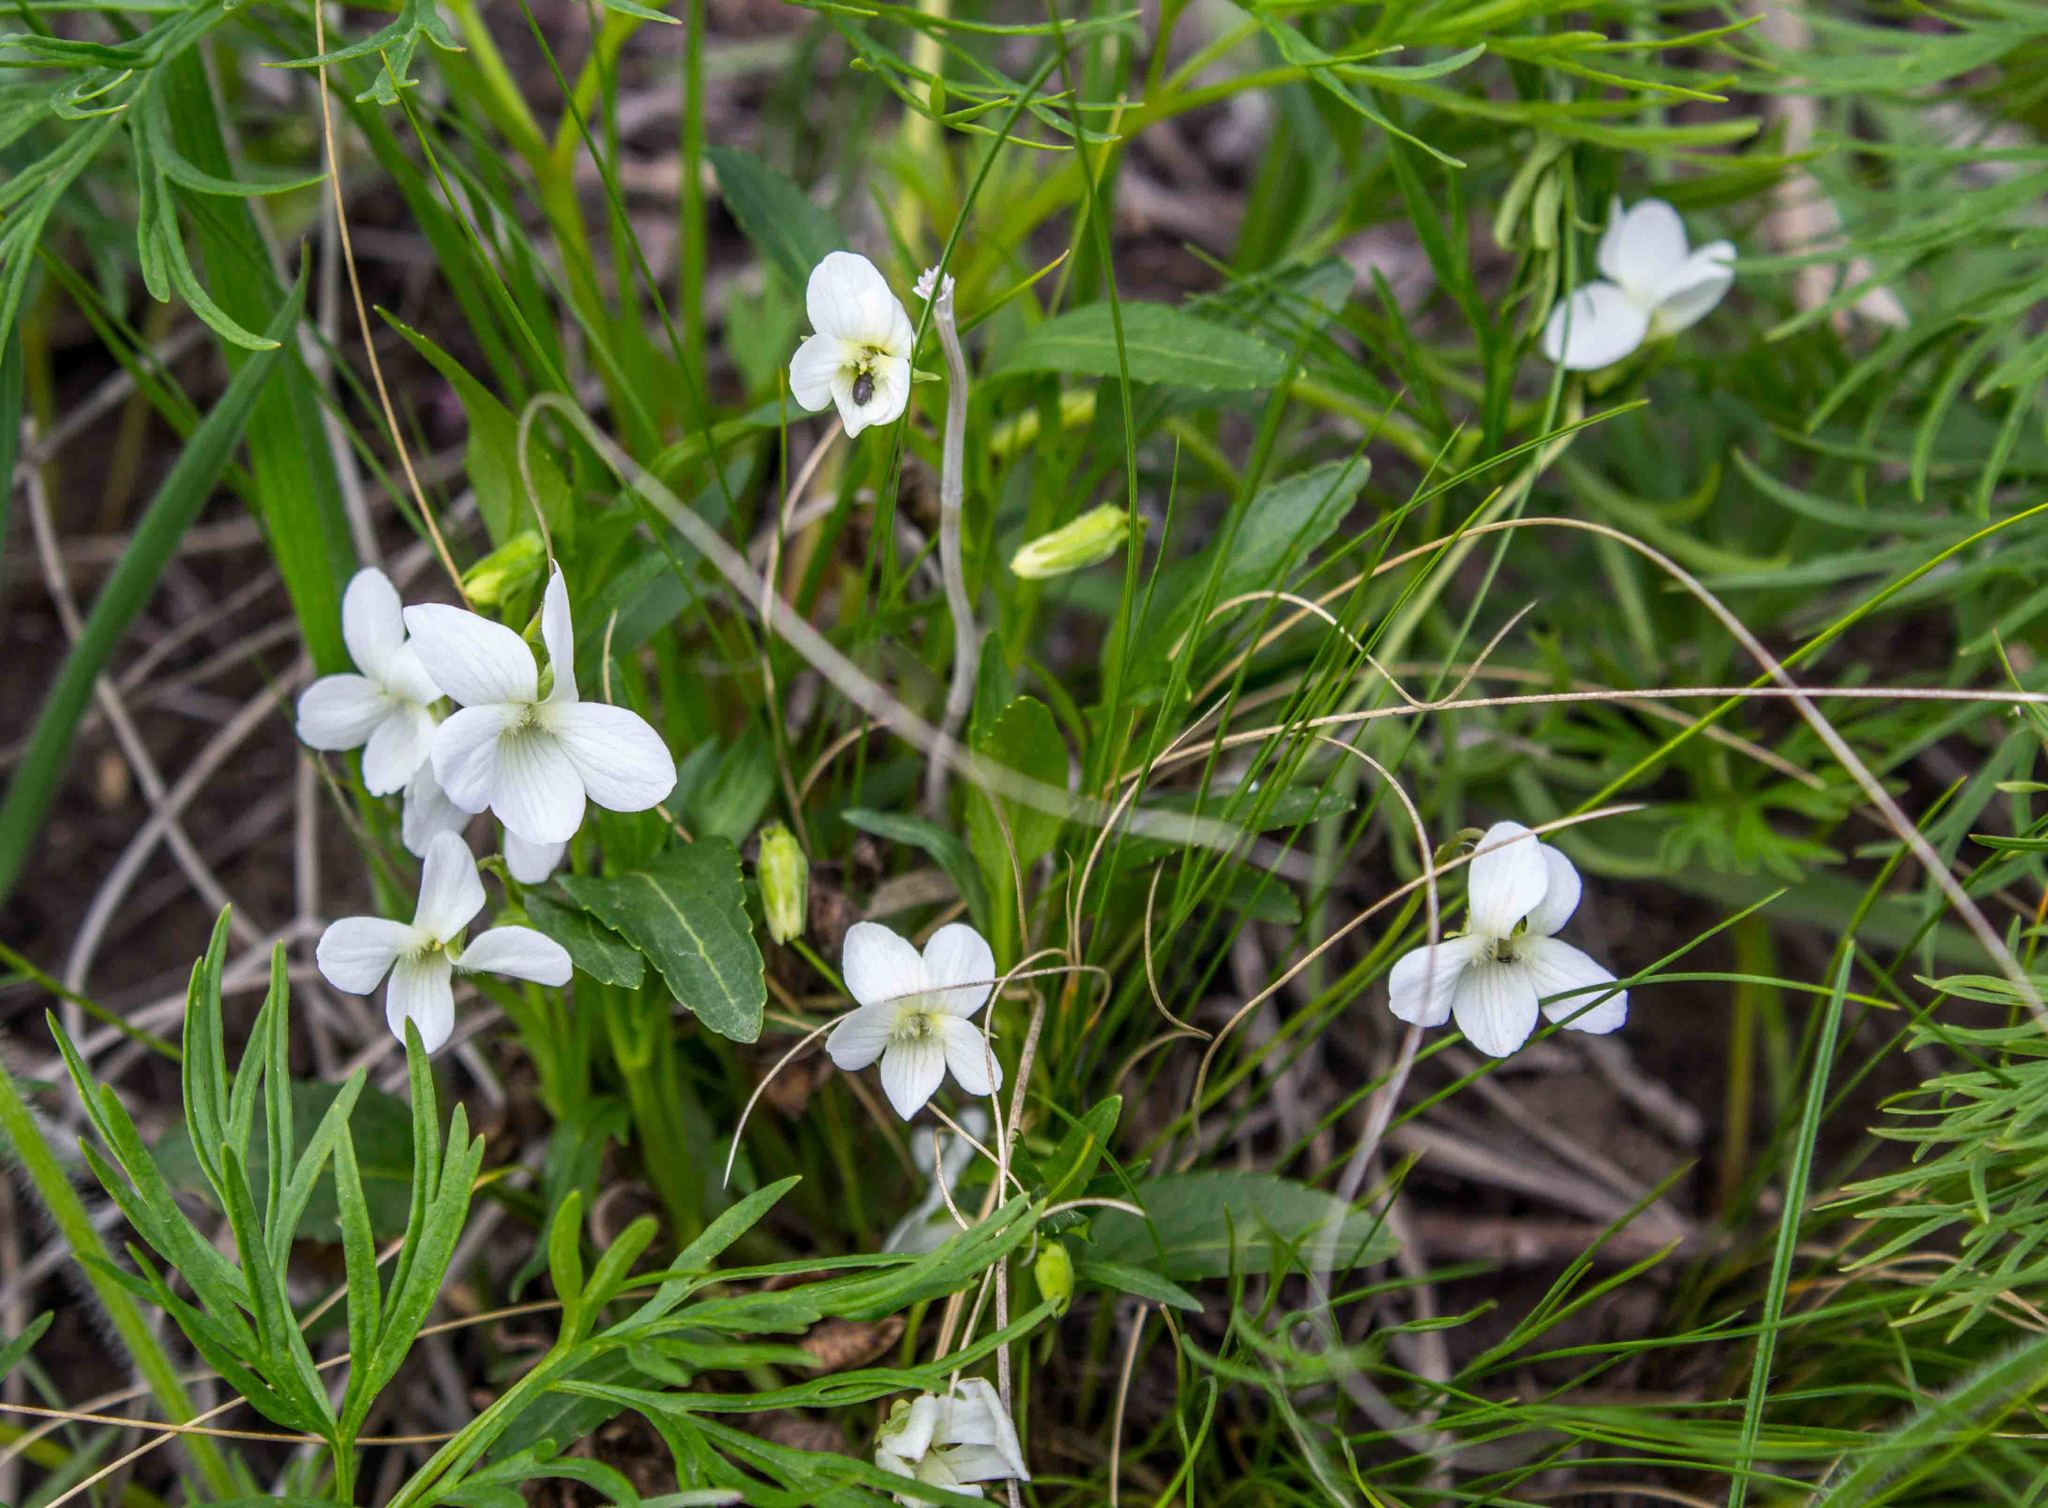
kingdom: Plantae
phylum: Tracheophyta
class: Magnoliopsida
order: Malpighiales
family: Violaceae
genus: Viola
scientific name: Viola pumila
